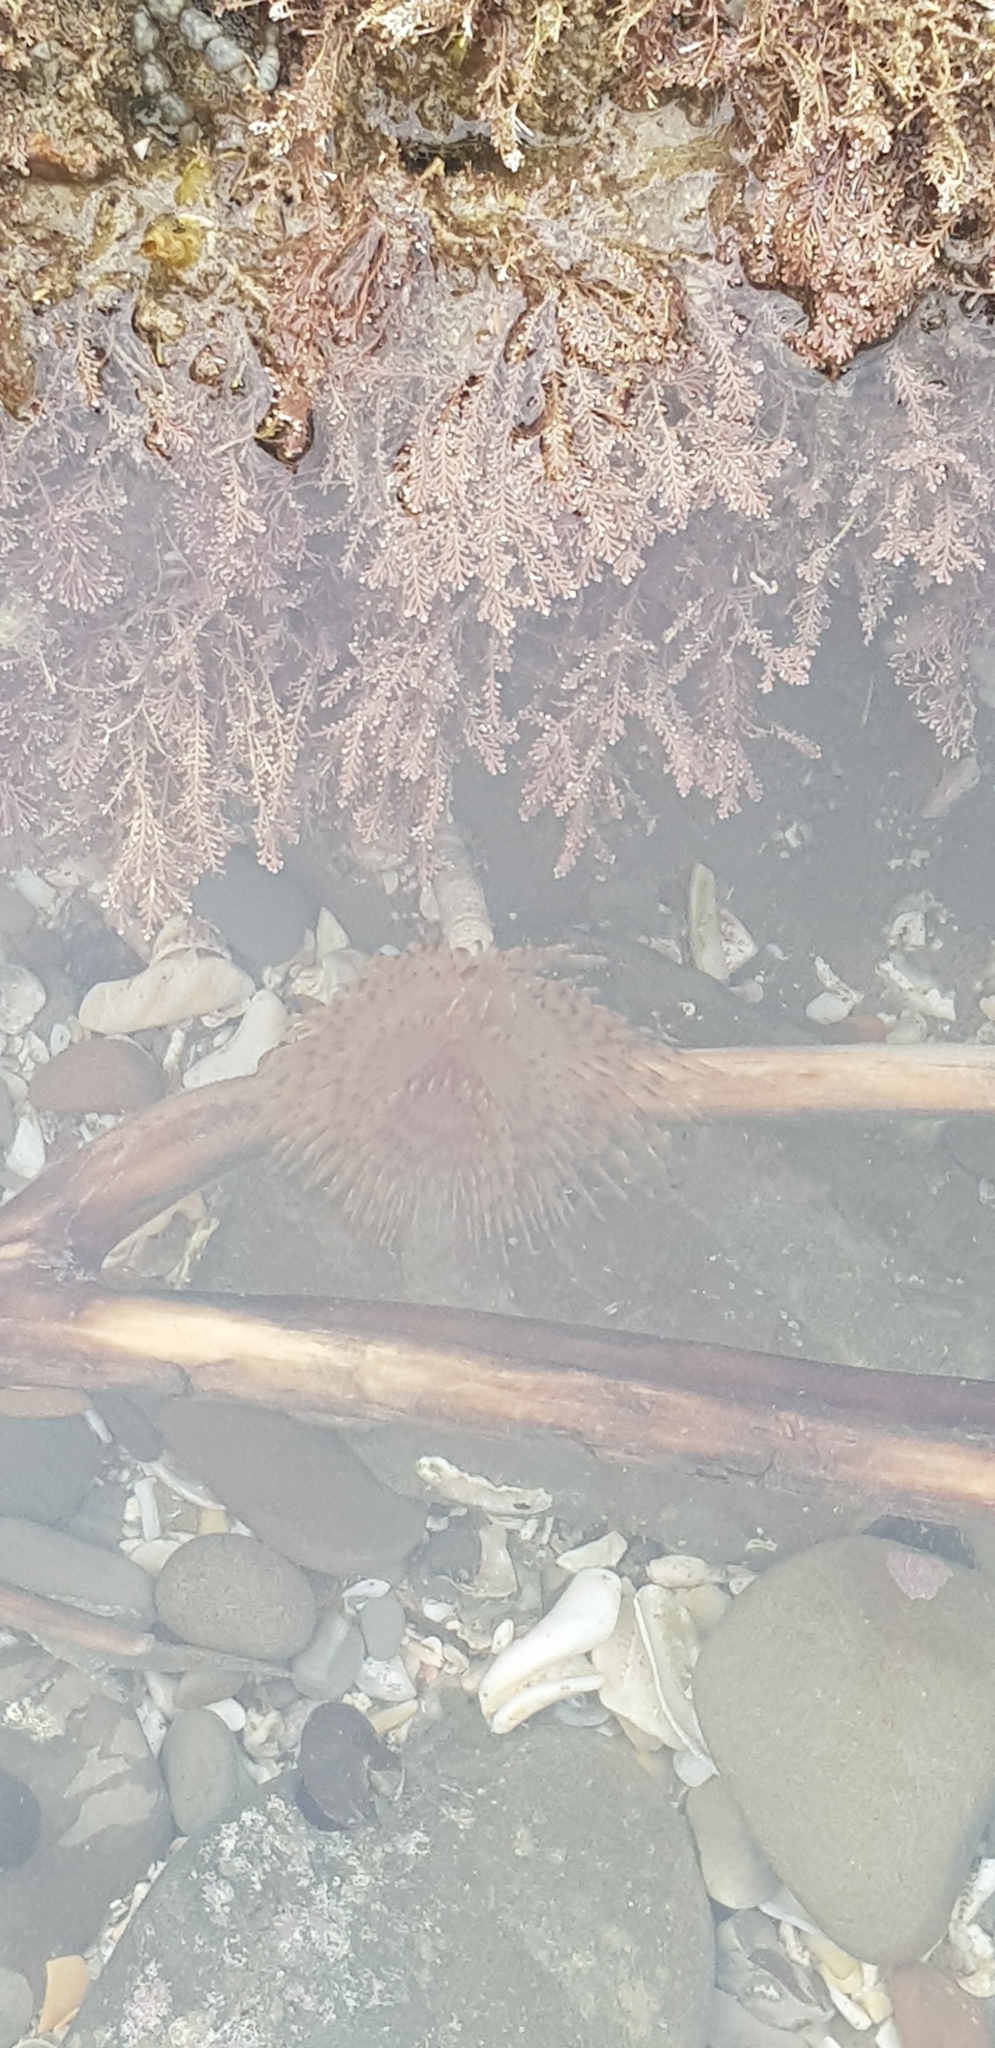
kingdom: Animalia
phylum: Annelida
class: Polychaeta
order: Sabellida
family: Sabellidae
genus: Sabella
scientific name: Sabella spallanzanii
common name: Feather duster worm
